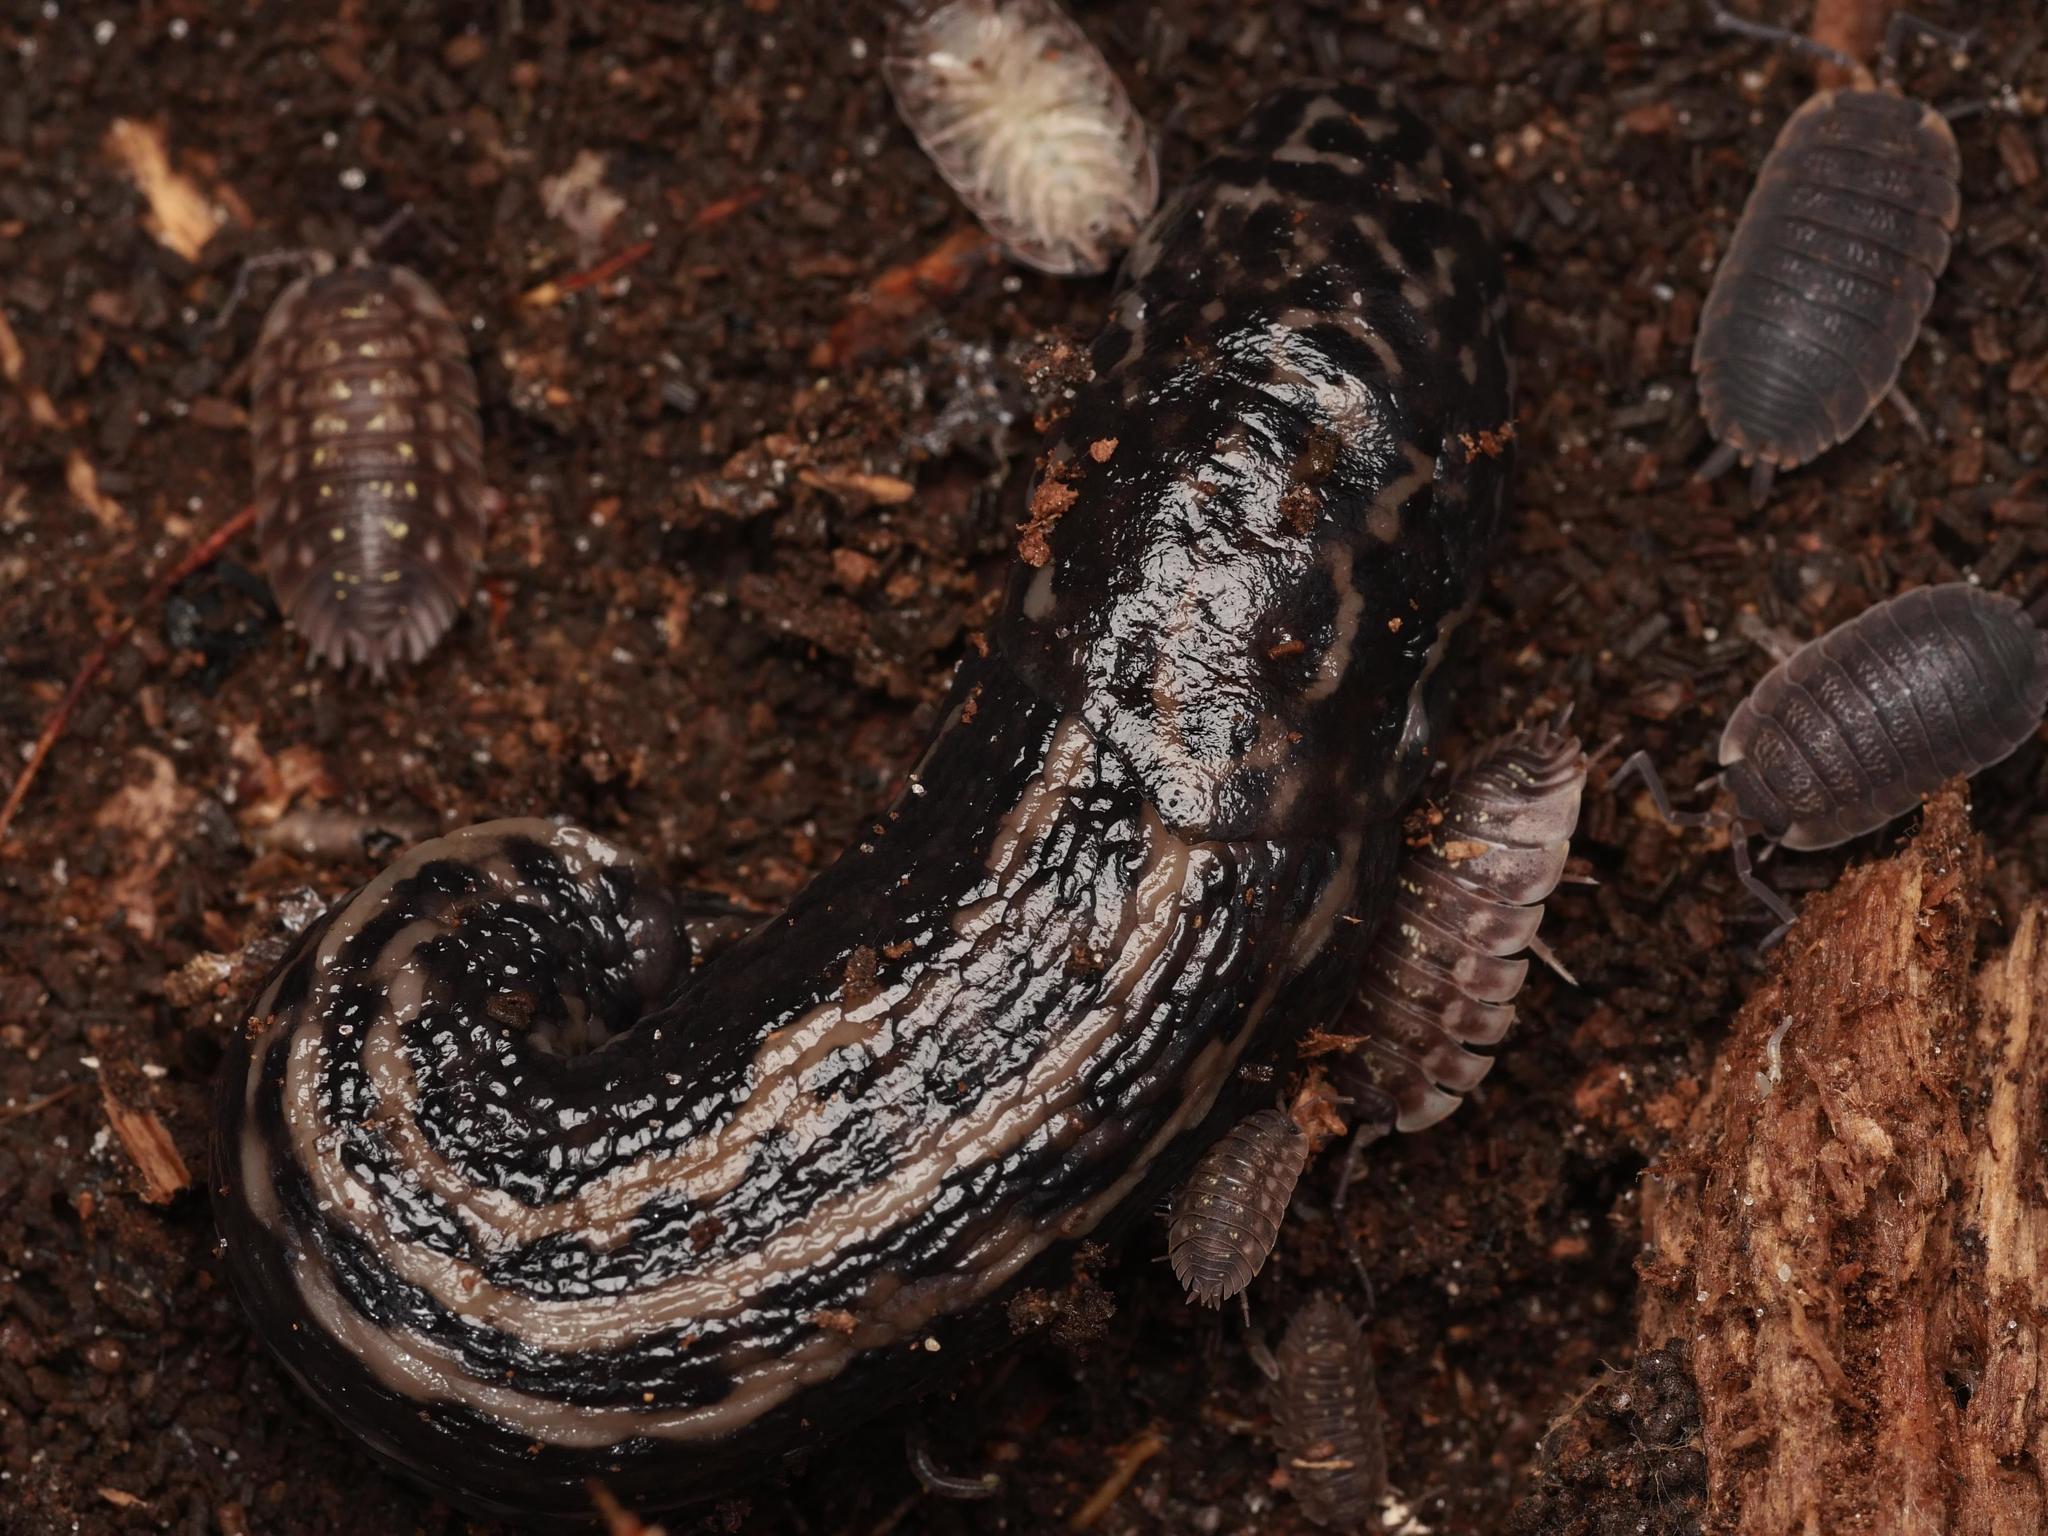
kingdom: Animalia
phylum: Mollusca
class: Gastropoda
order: Stylommatophora
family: Limacidae
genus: Limax
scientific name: Limax maximus
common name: Great grey slug
